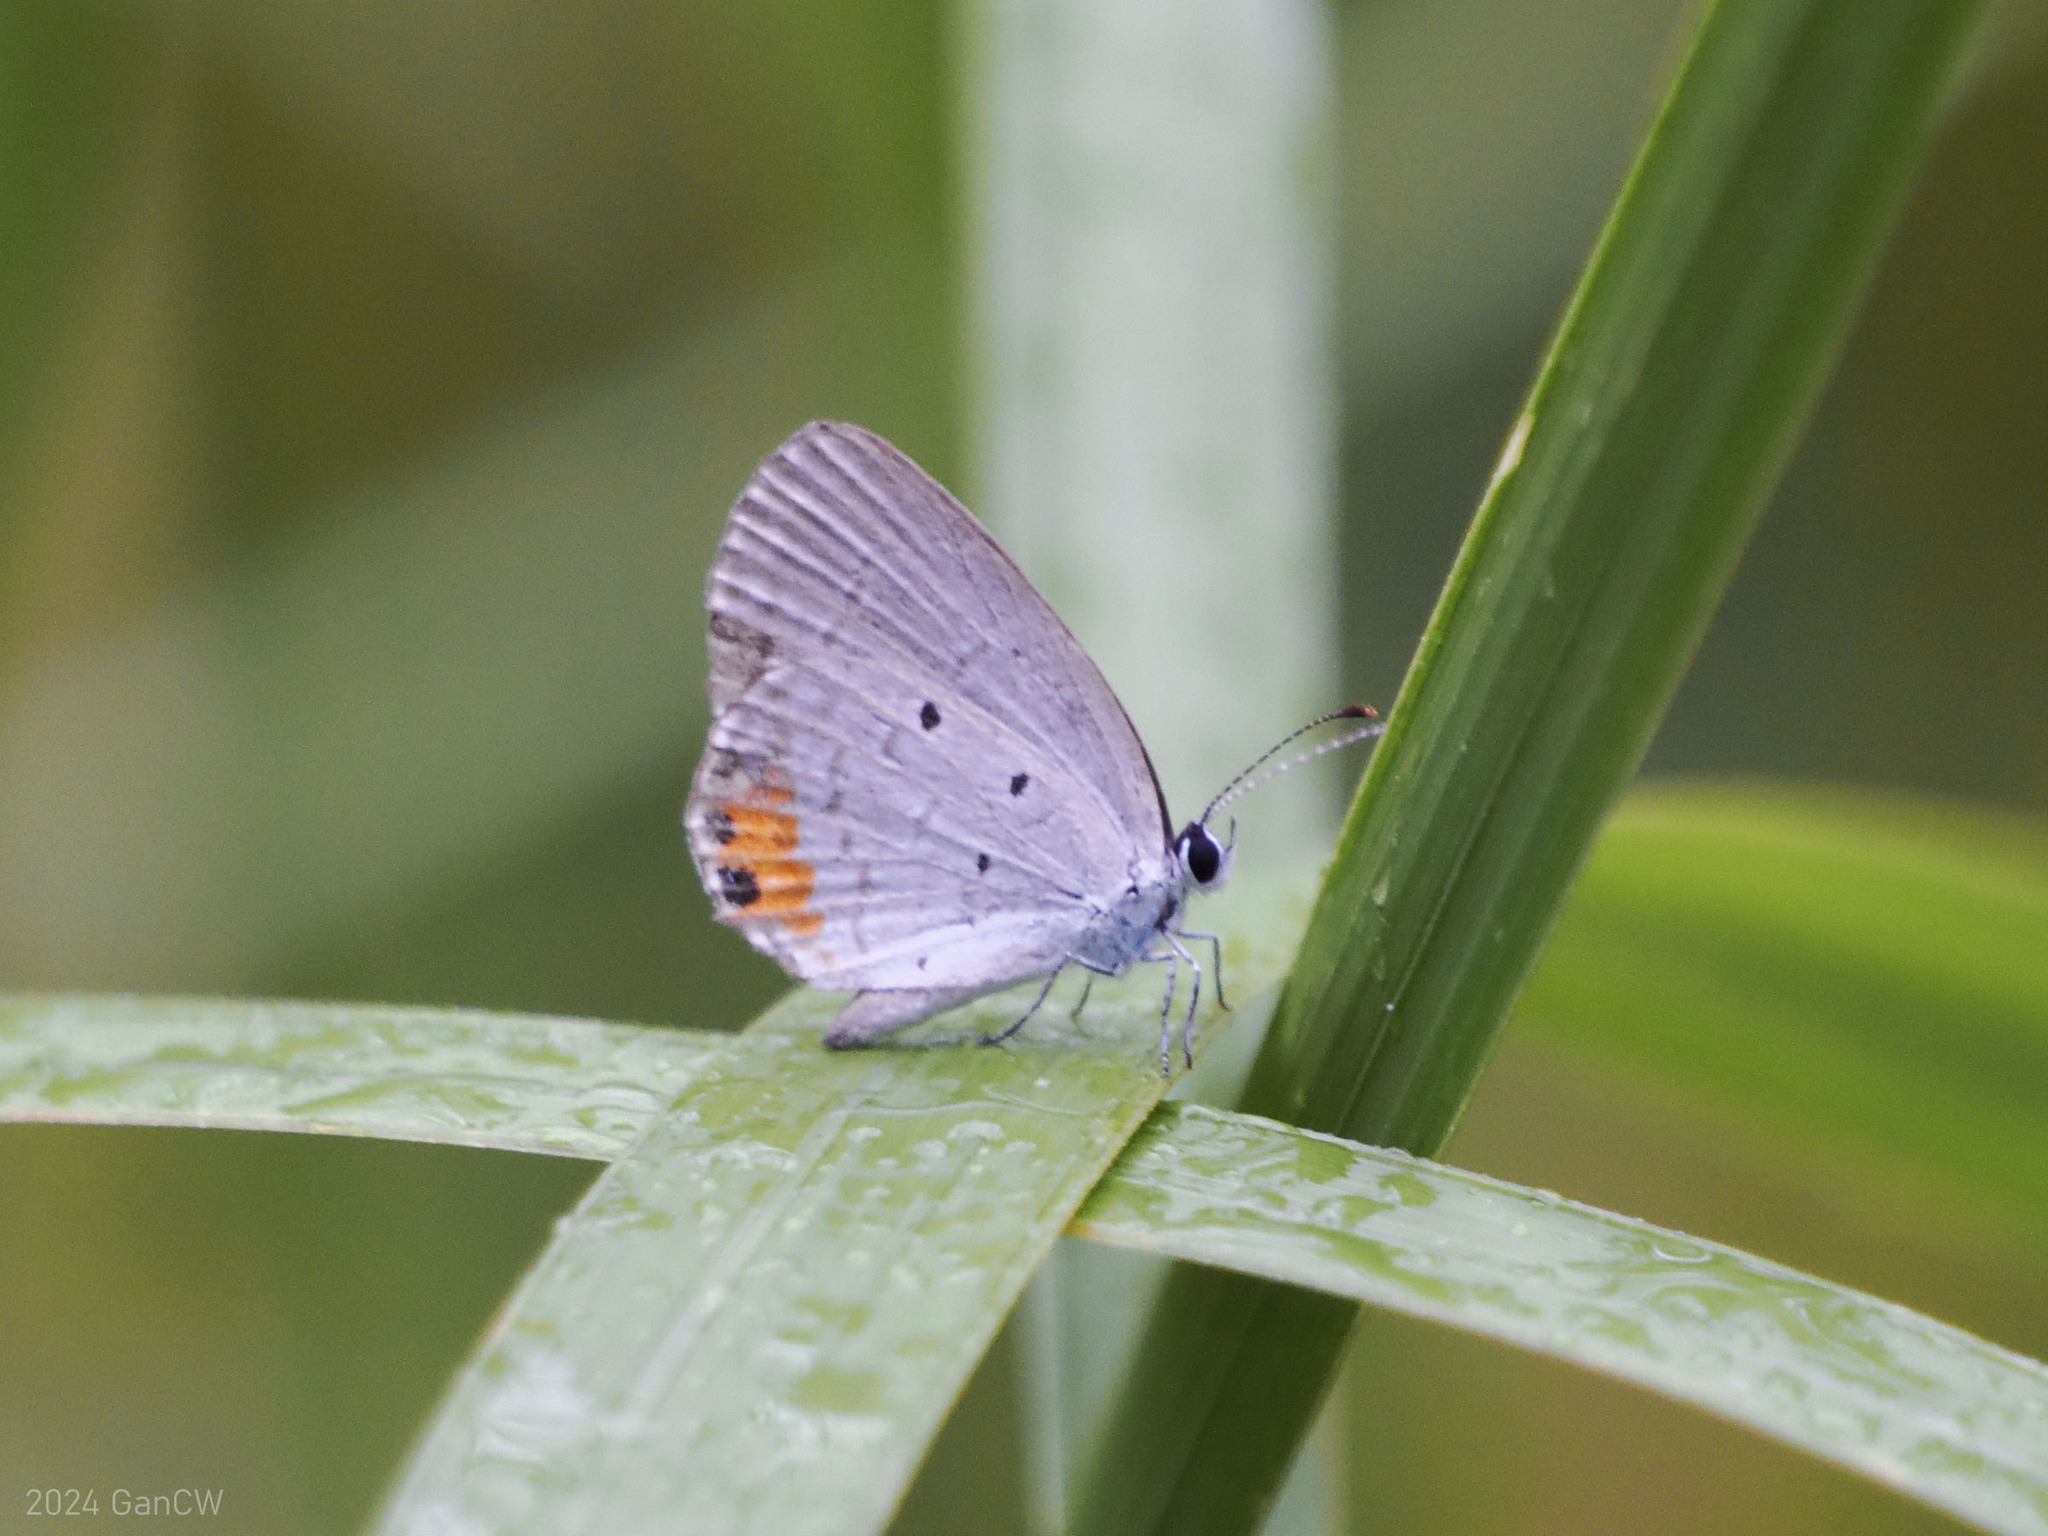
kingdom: Animalia
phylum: Arthropoda
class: Insecta
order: Lepidoptera
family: Lycaenidae
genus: Everes
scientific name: Everes lacturnus
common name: Orange-tipped pea-blue
